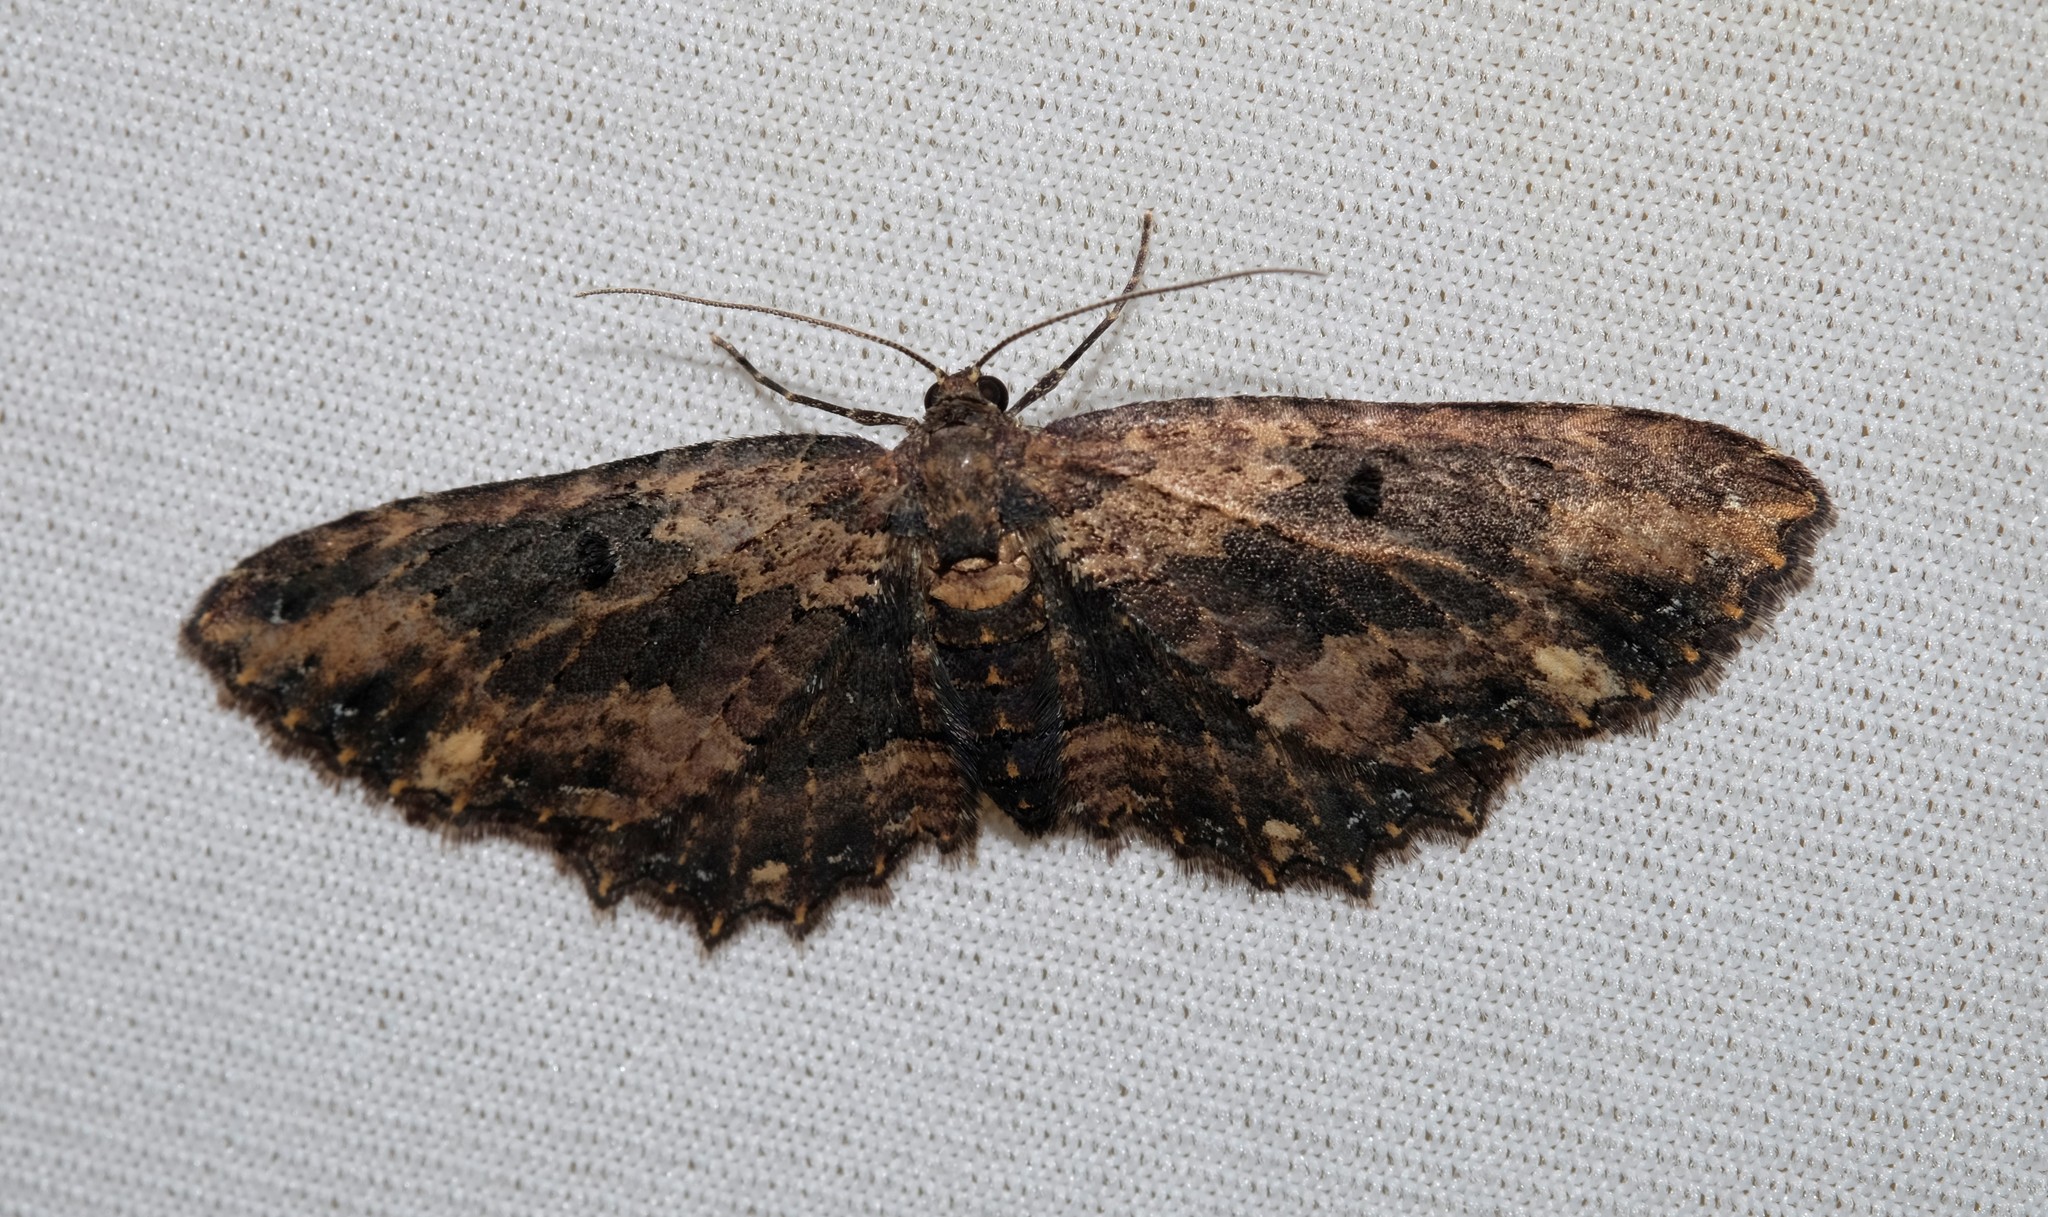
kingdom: Animalia
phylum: Arthropoda
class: Insecta
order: Lepidoptera
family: Geometridae
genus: Eccymatoge
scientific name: Eccymatoge callizona
